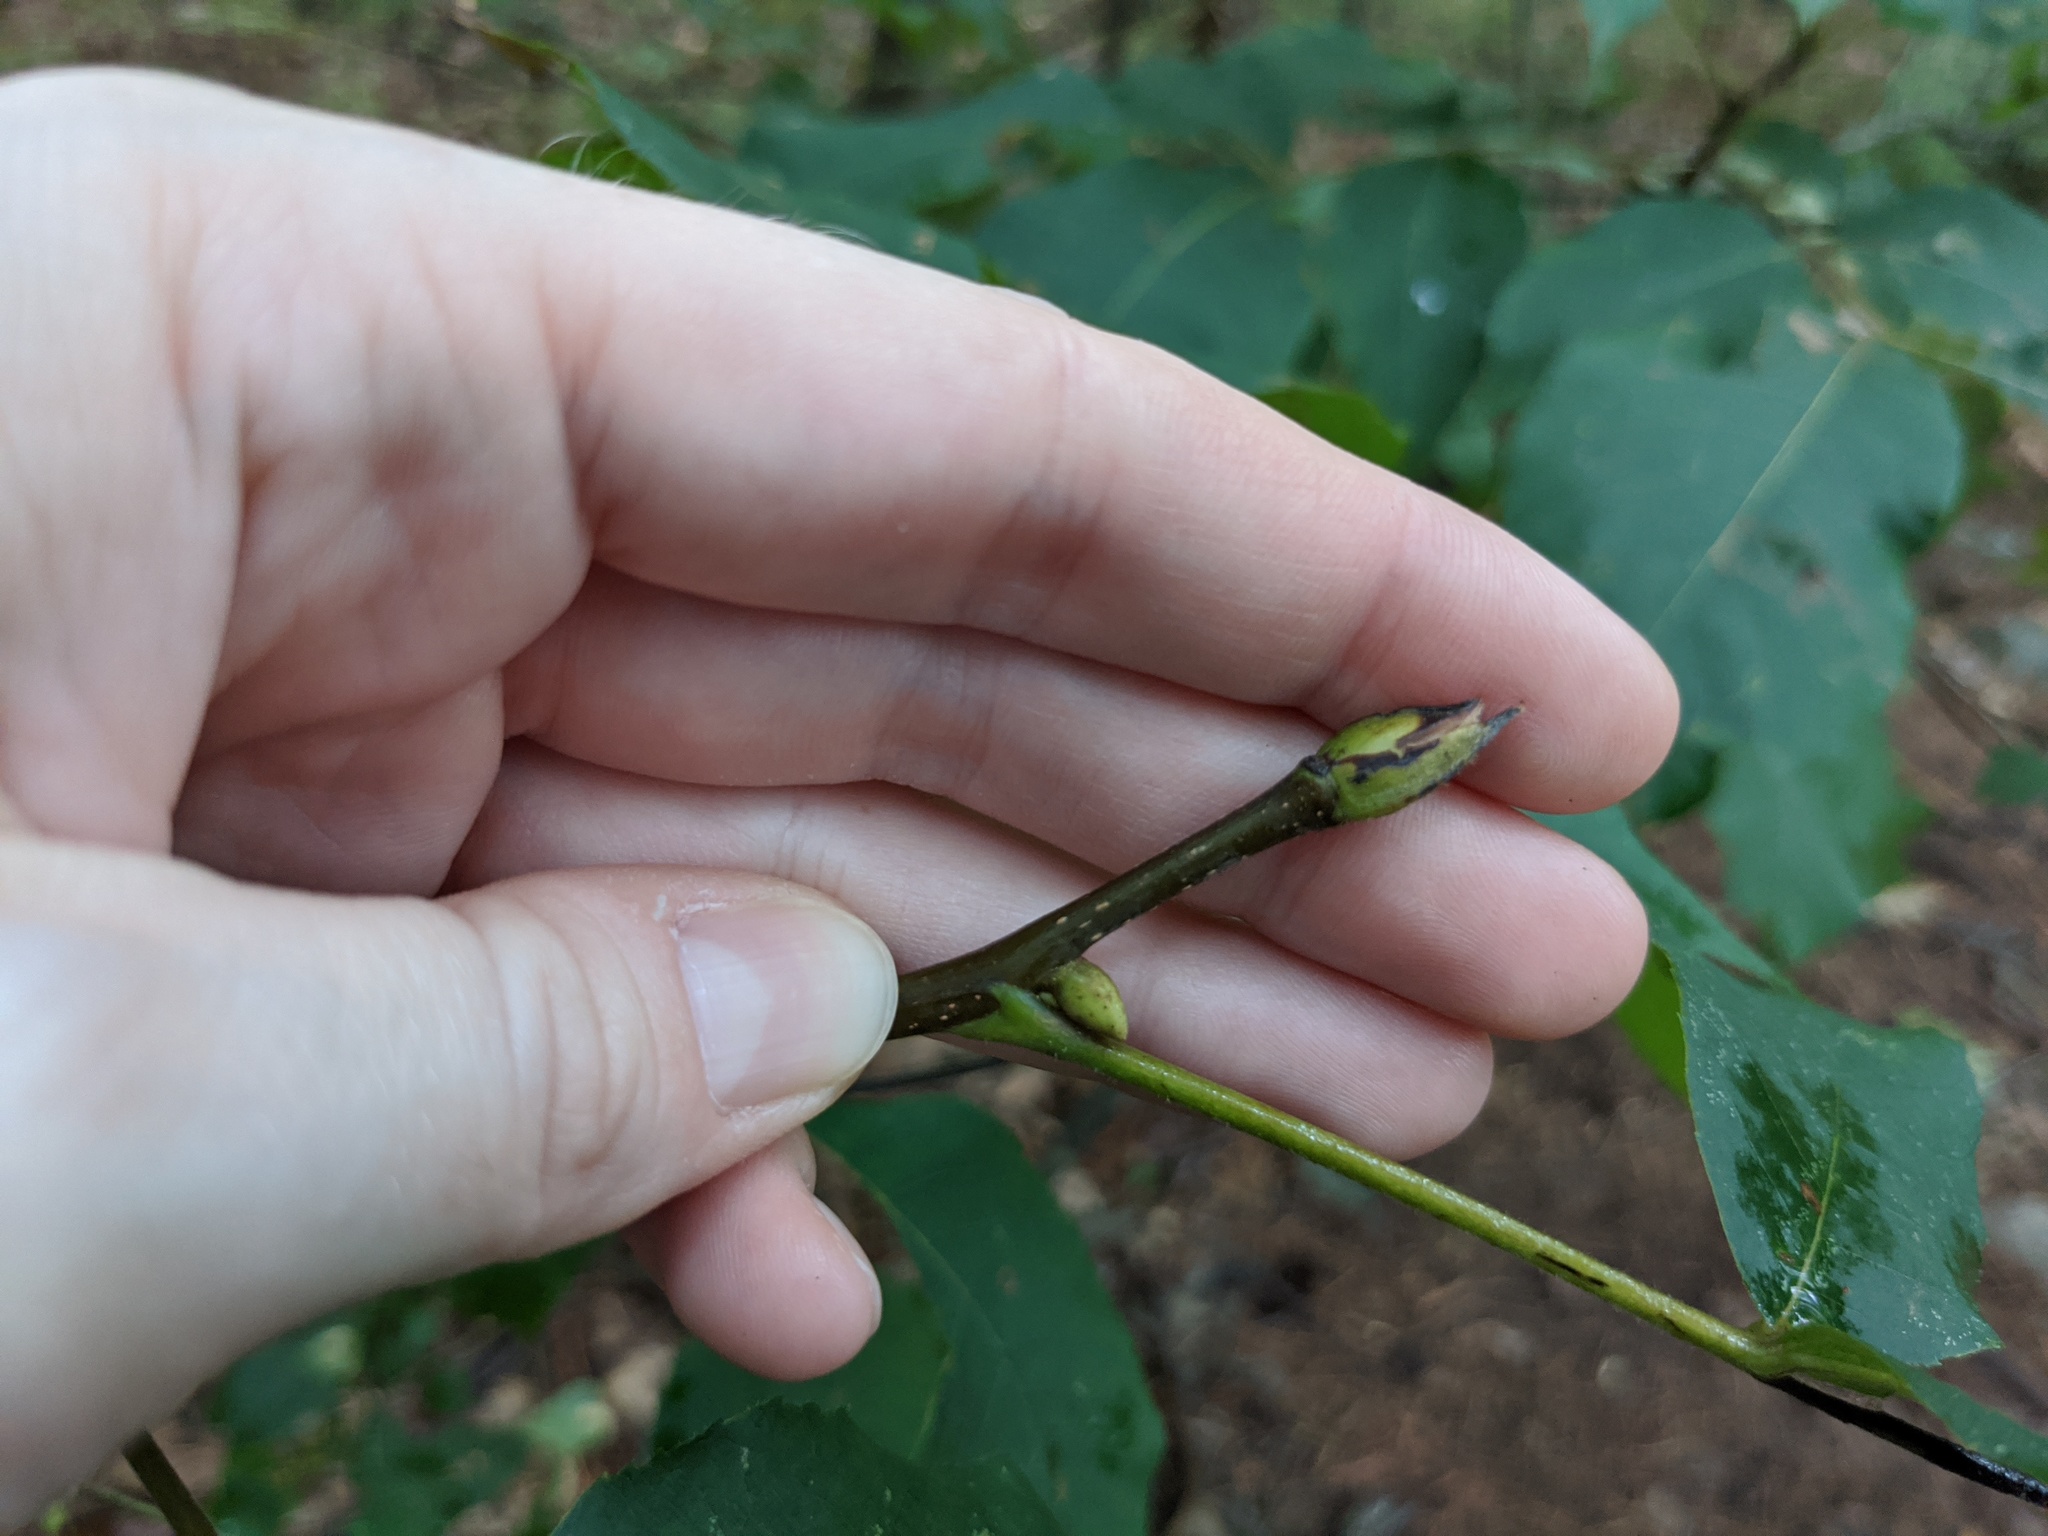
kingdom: Animalia
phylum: Arthropoda
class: Insecta
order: Diptera
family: Cecidomyiidae
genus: Caryomyia
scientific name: Caryomyia aggregata
